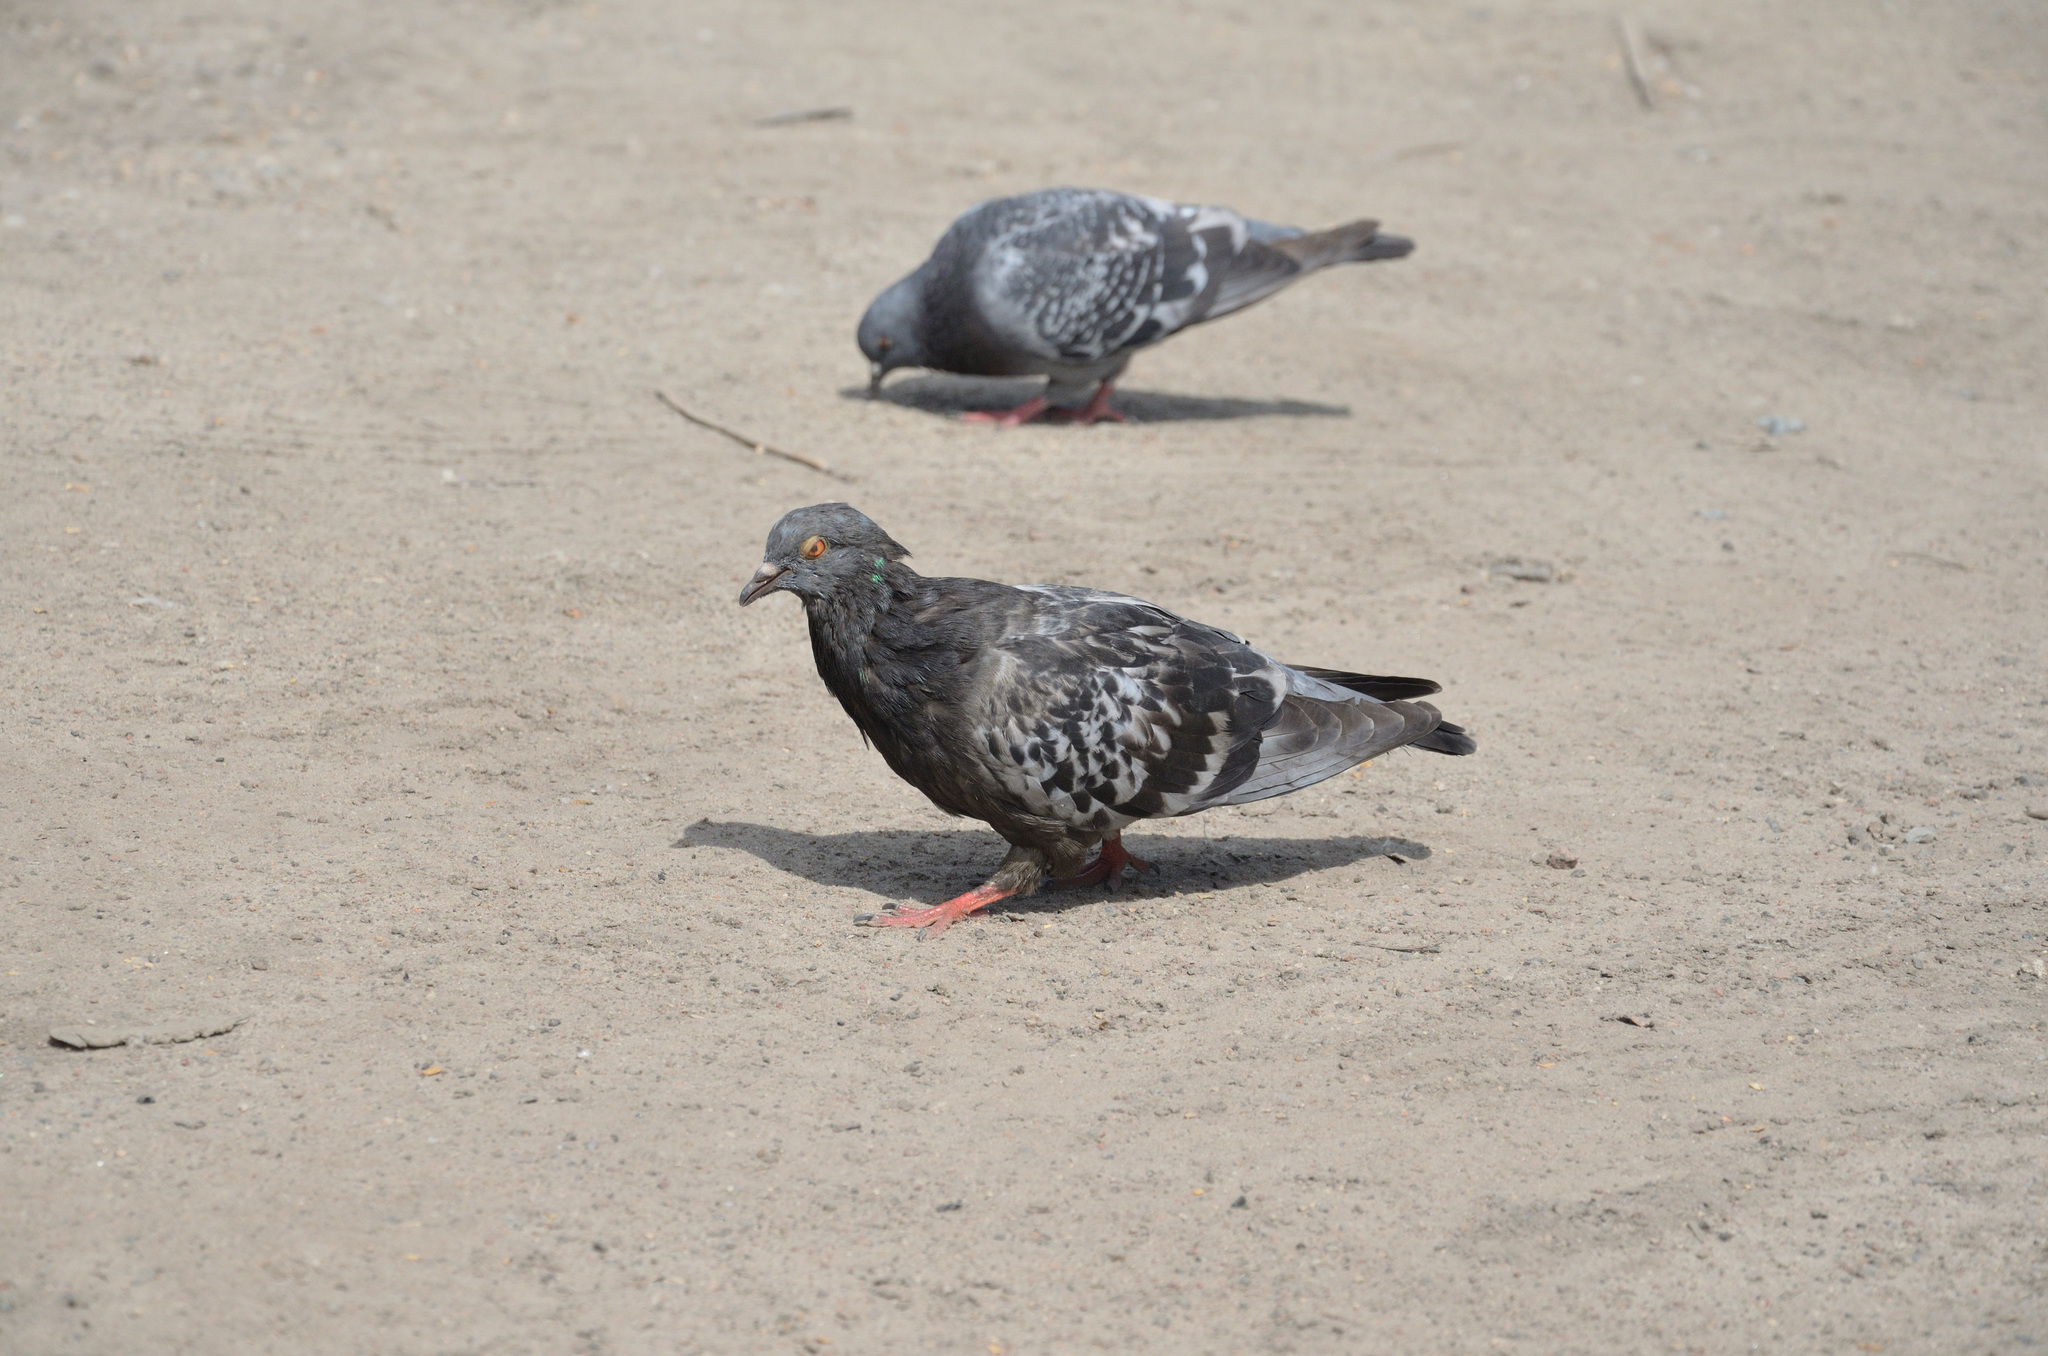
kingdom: Animalia
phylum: Chordata
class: Aves
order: Columbiformes
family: Columbidae
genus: Columba
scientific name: Columba livia
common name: Rock pigeon
